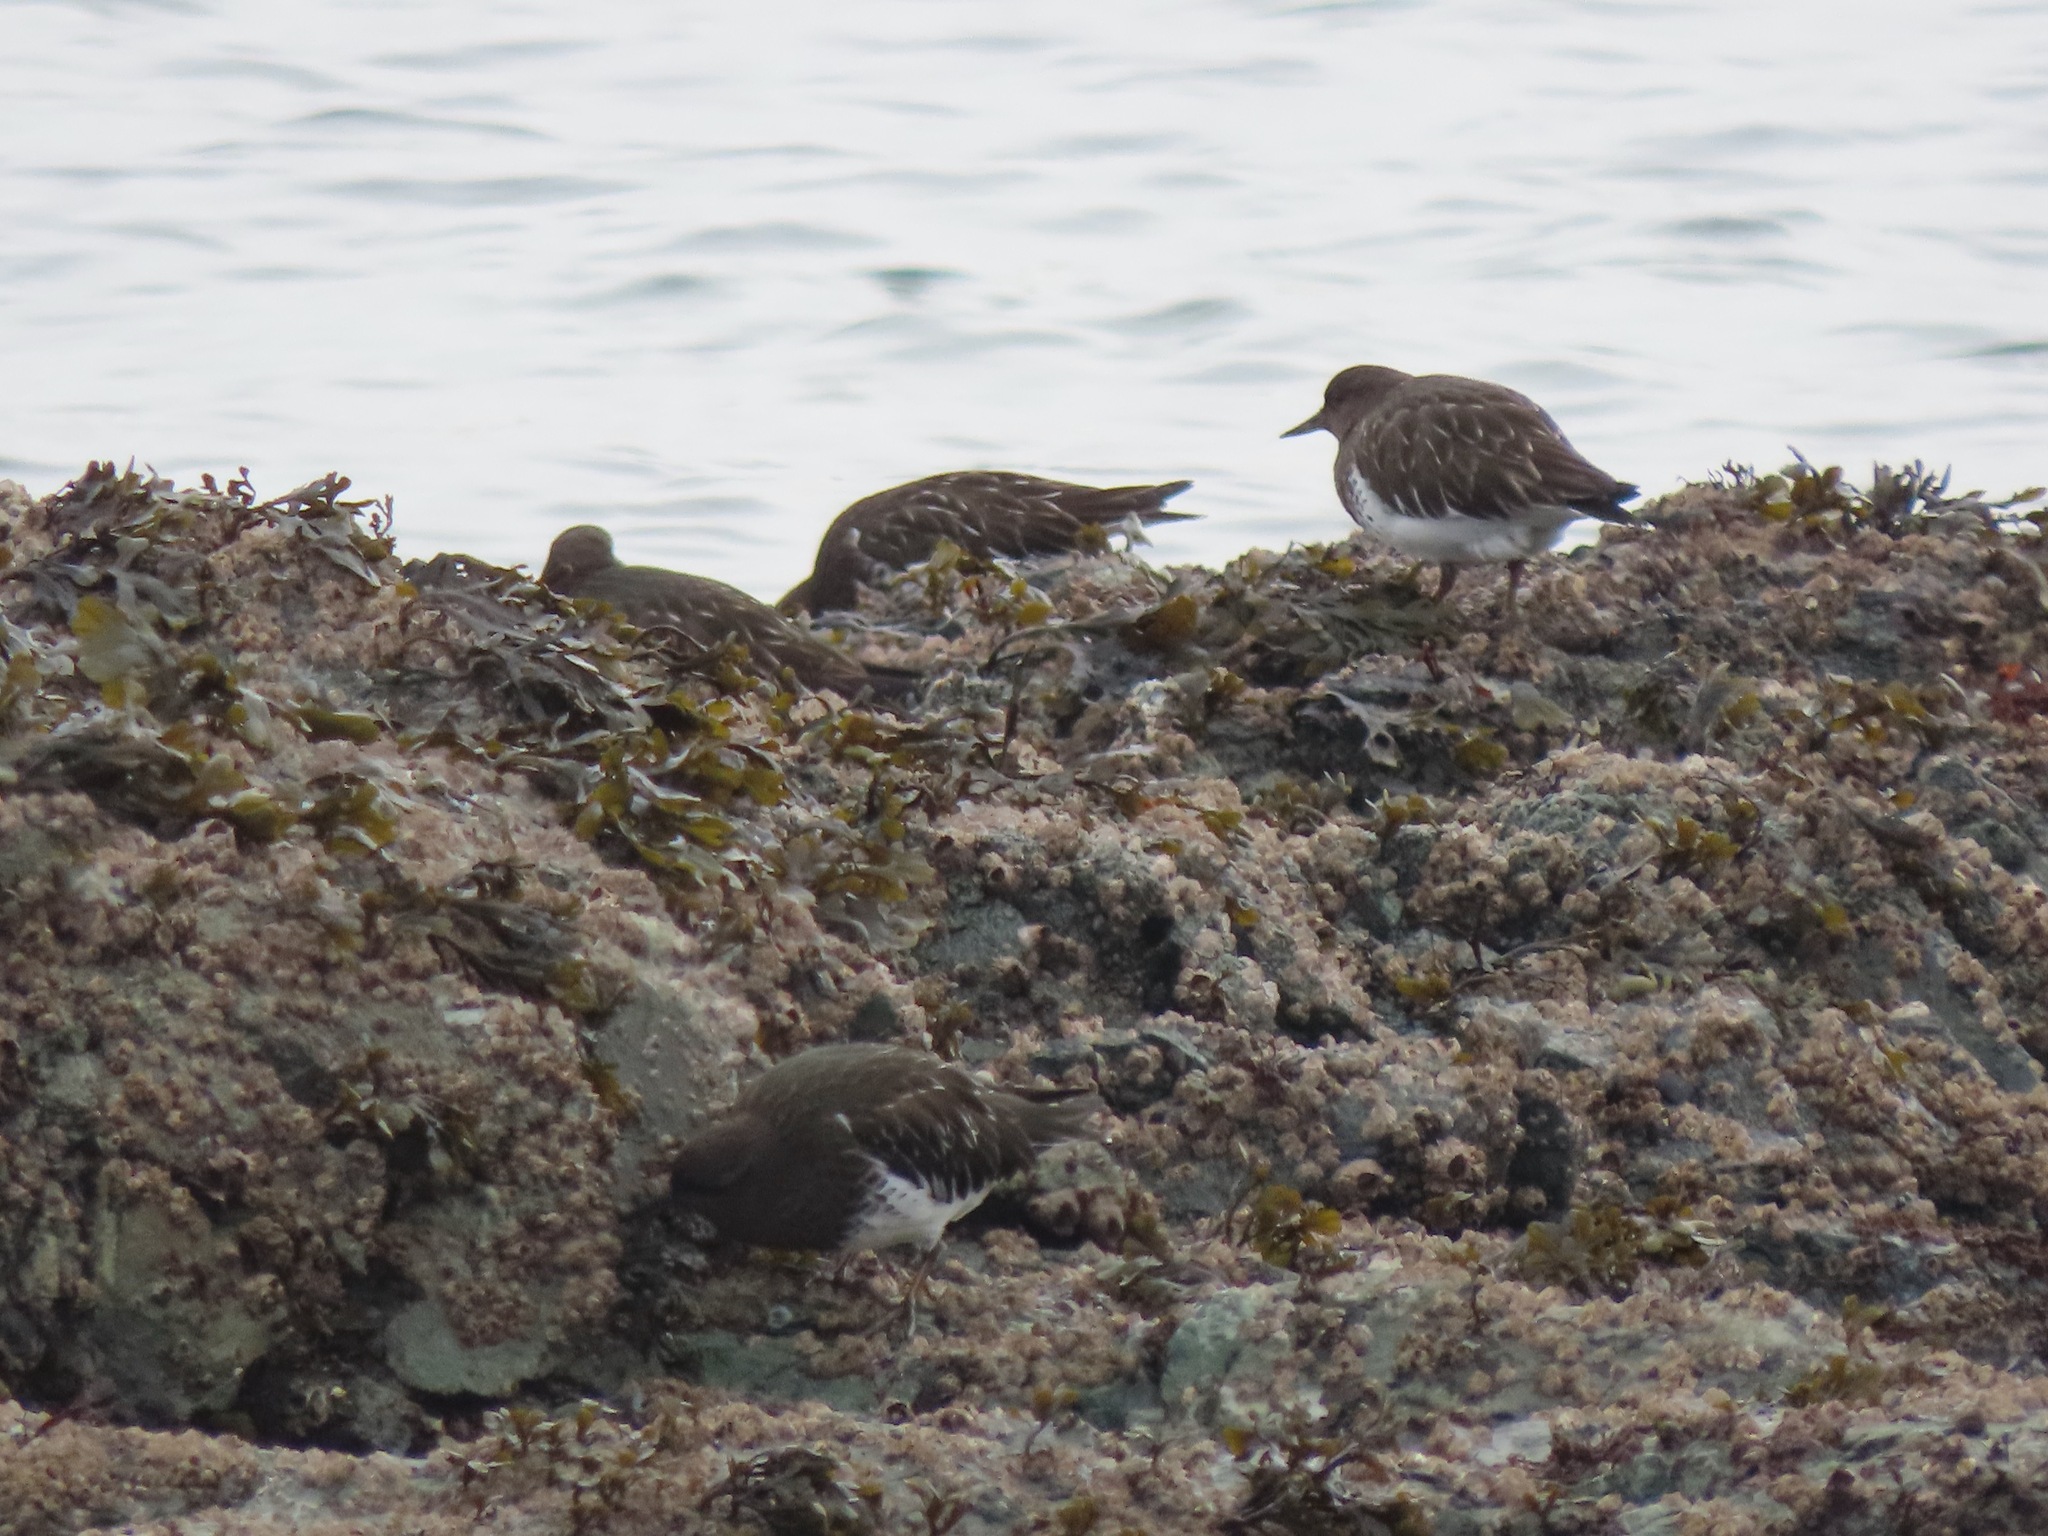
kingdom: Animalia
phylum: Chordata
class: Aves
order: Charadriiformes
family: Scolopacidae
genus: Arenaria
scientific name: Arenaria melanocephala
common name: Black turnstone
